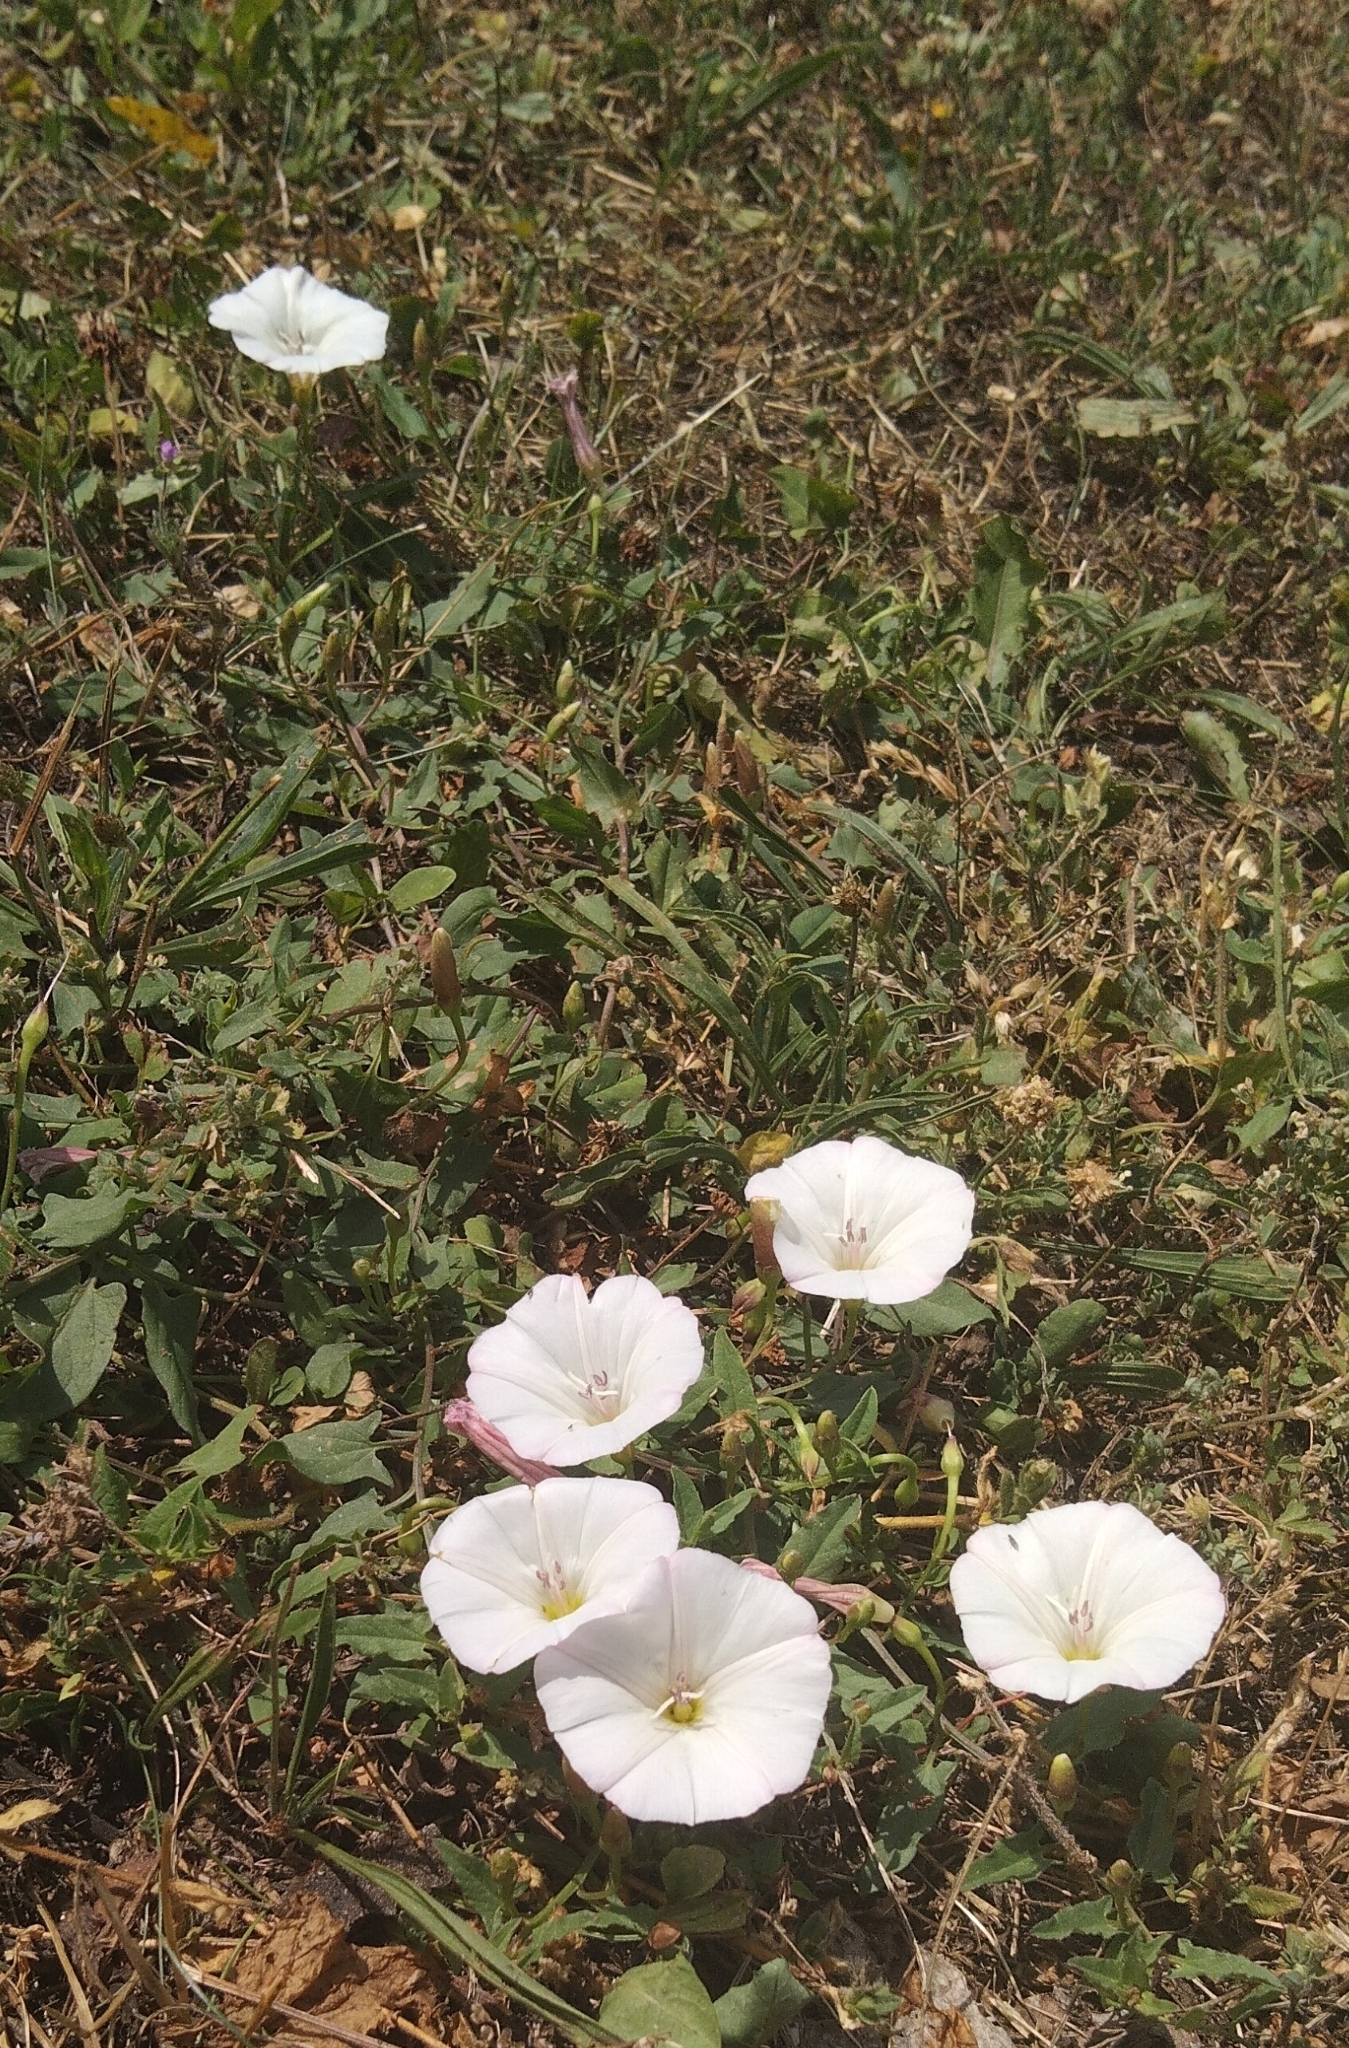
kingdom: Plantae
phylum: Tracheophyta
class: Magnoliopsida
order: Solanales
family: Convolvulaceae
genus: Convolvulus
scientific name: Convolvulus arvensis
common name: Field bindweed
